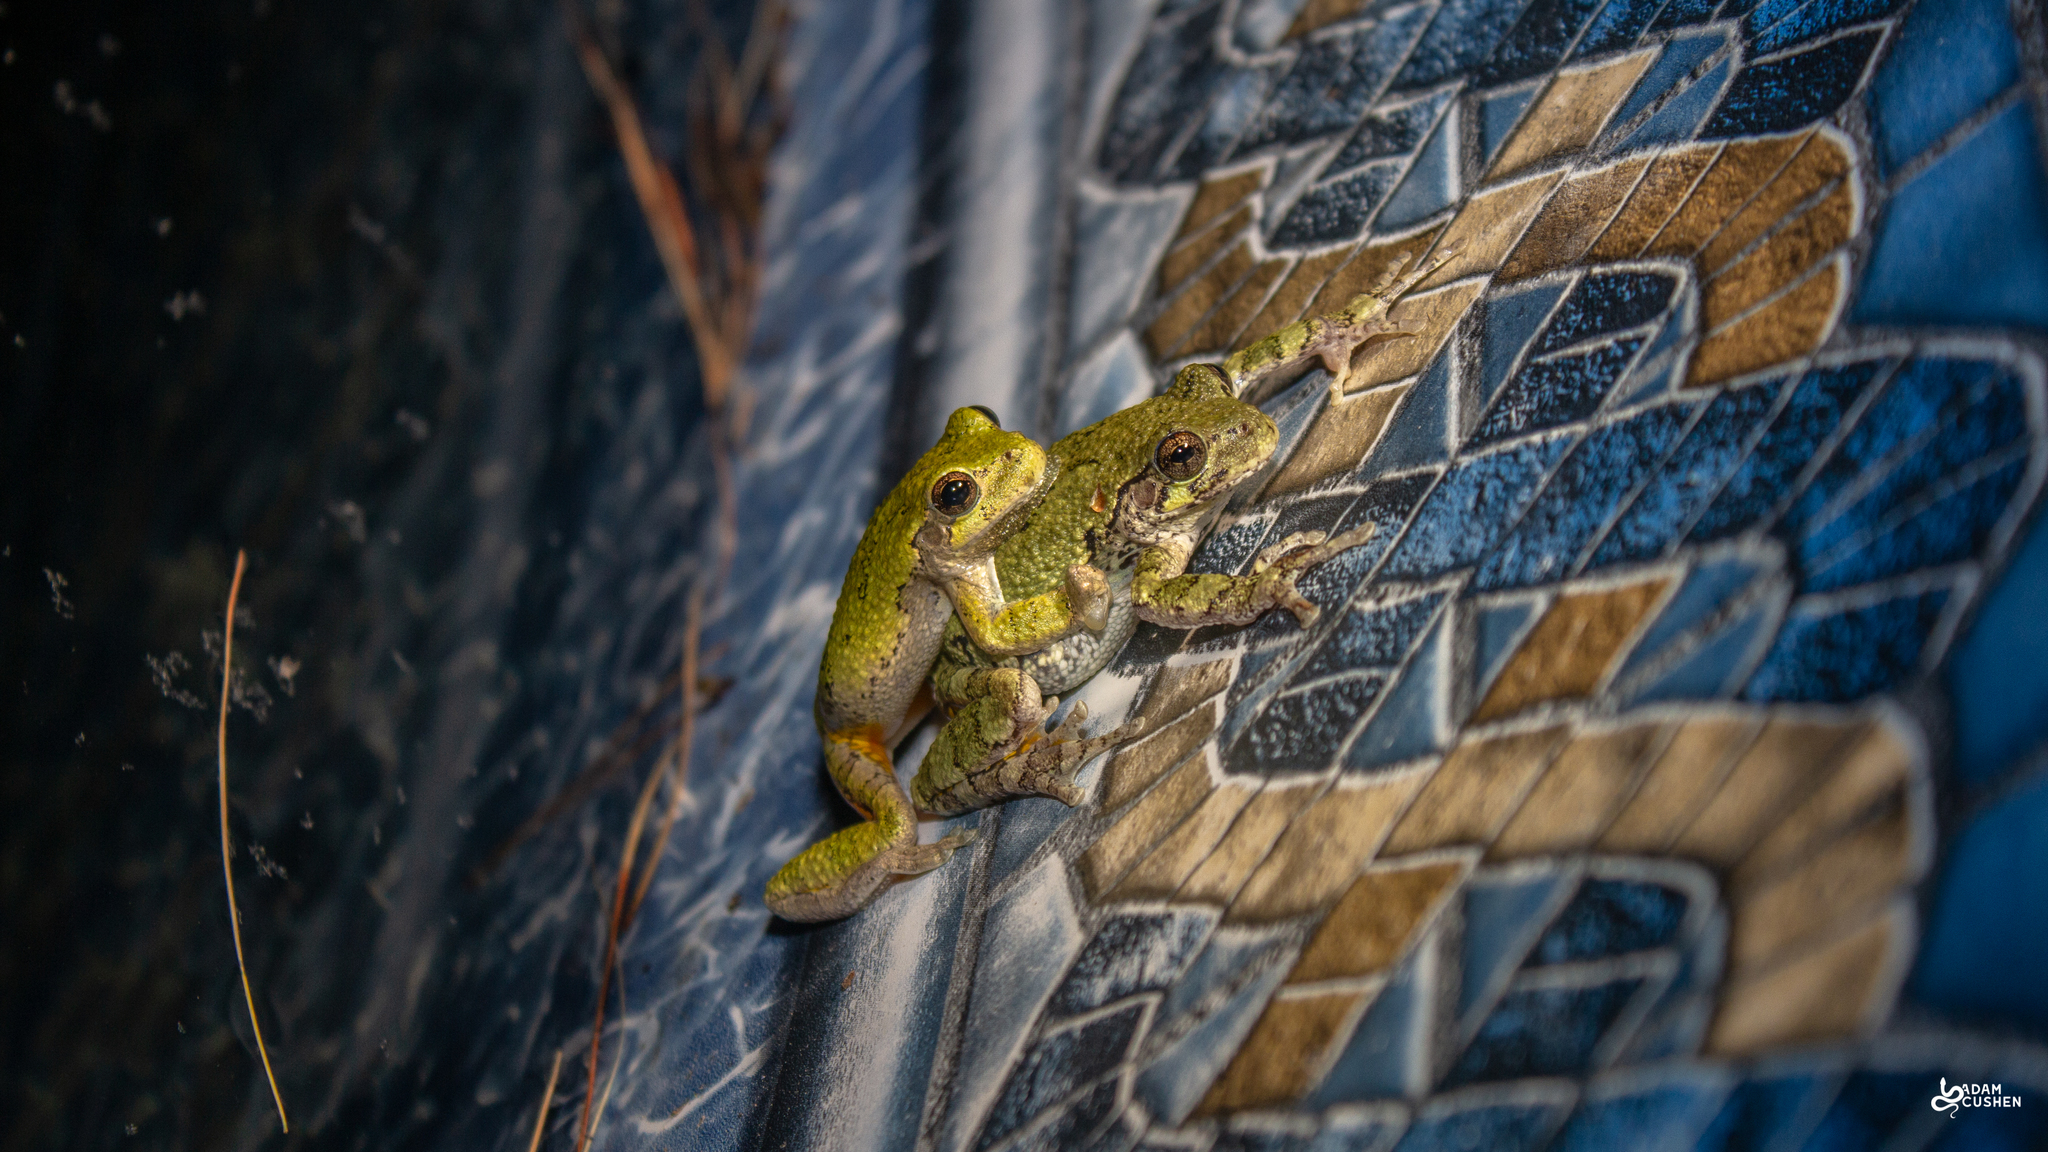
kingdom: Animalia
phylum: Chordata
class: Amphibia
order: Anura
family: Hylidae
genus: Dryophytes
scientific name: Dryophytes versicolor
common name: Gray treefrog
